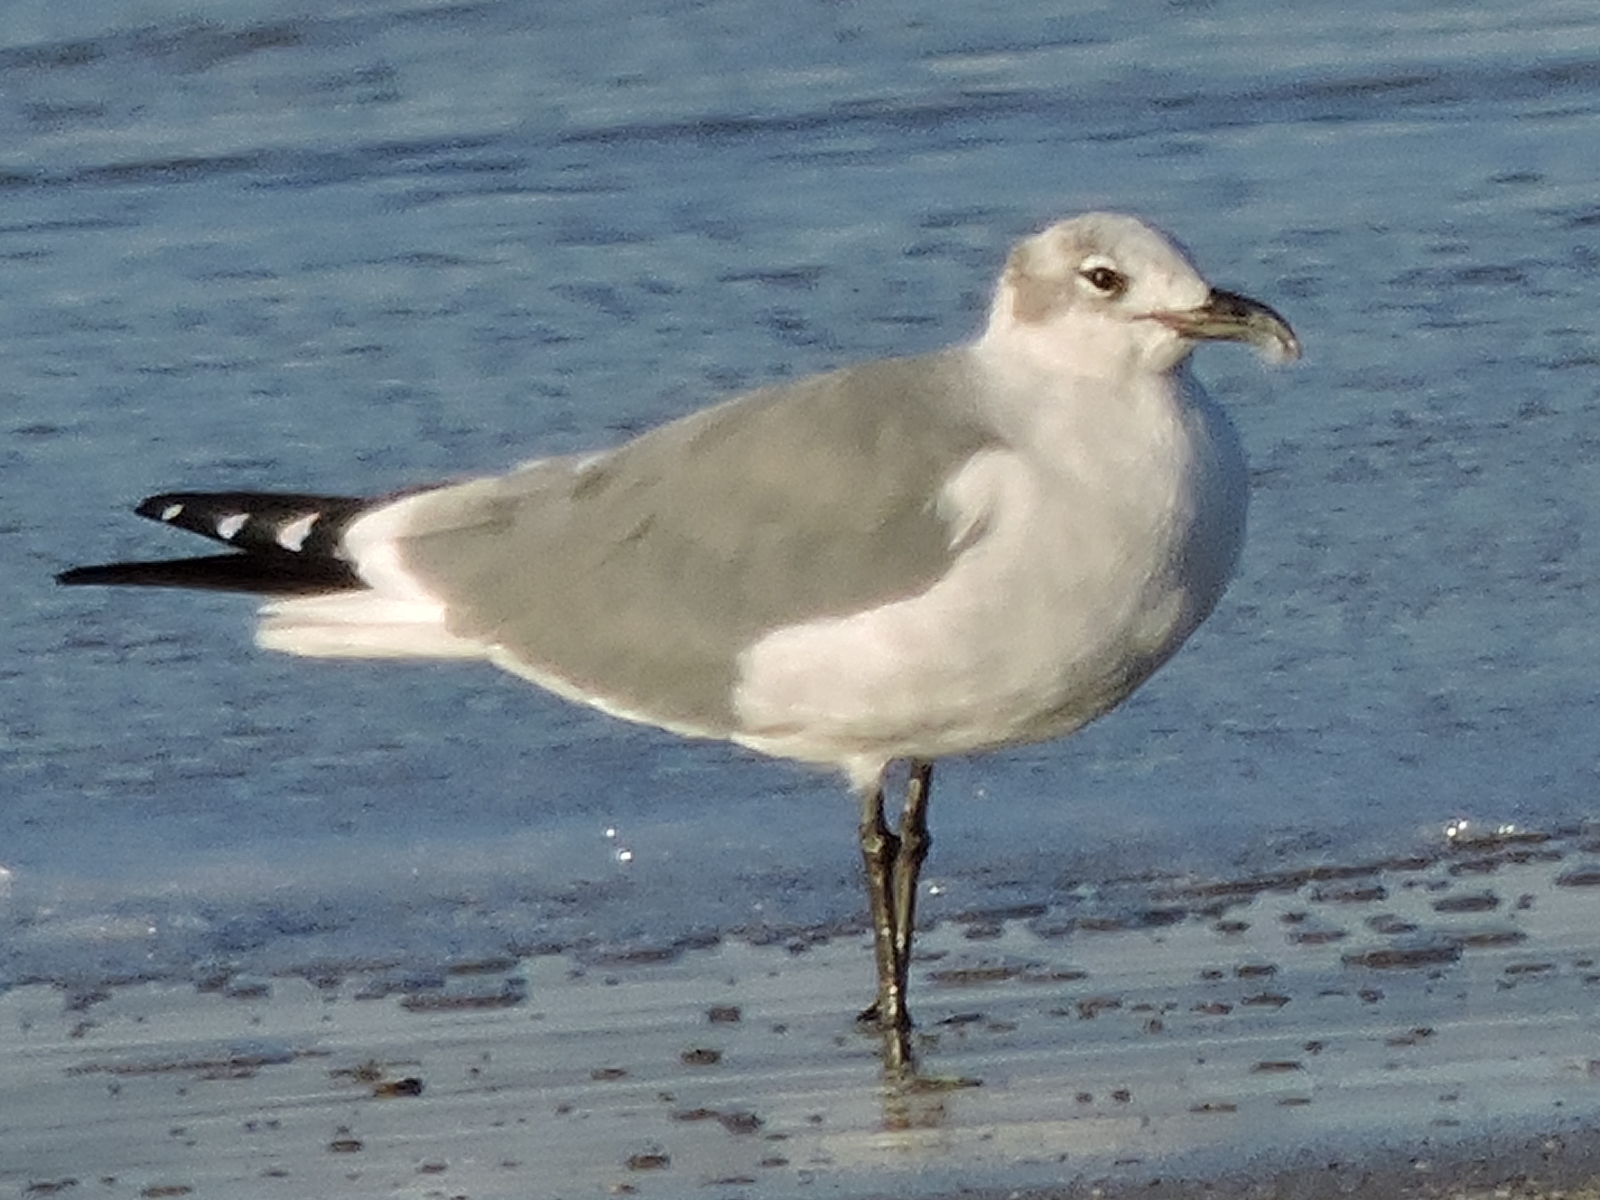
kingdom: Animalia
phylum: Chordata
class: Aves
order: Charadriiformes
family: Laridae
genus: Leucophaeus
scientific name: Leucophaeus atricilla
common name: Laughing gull
